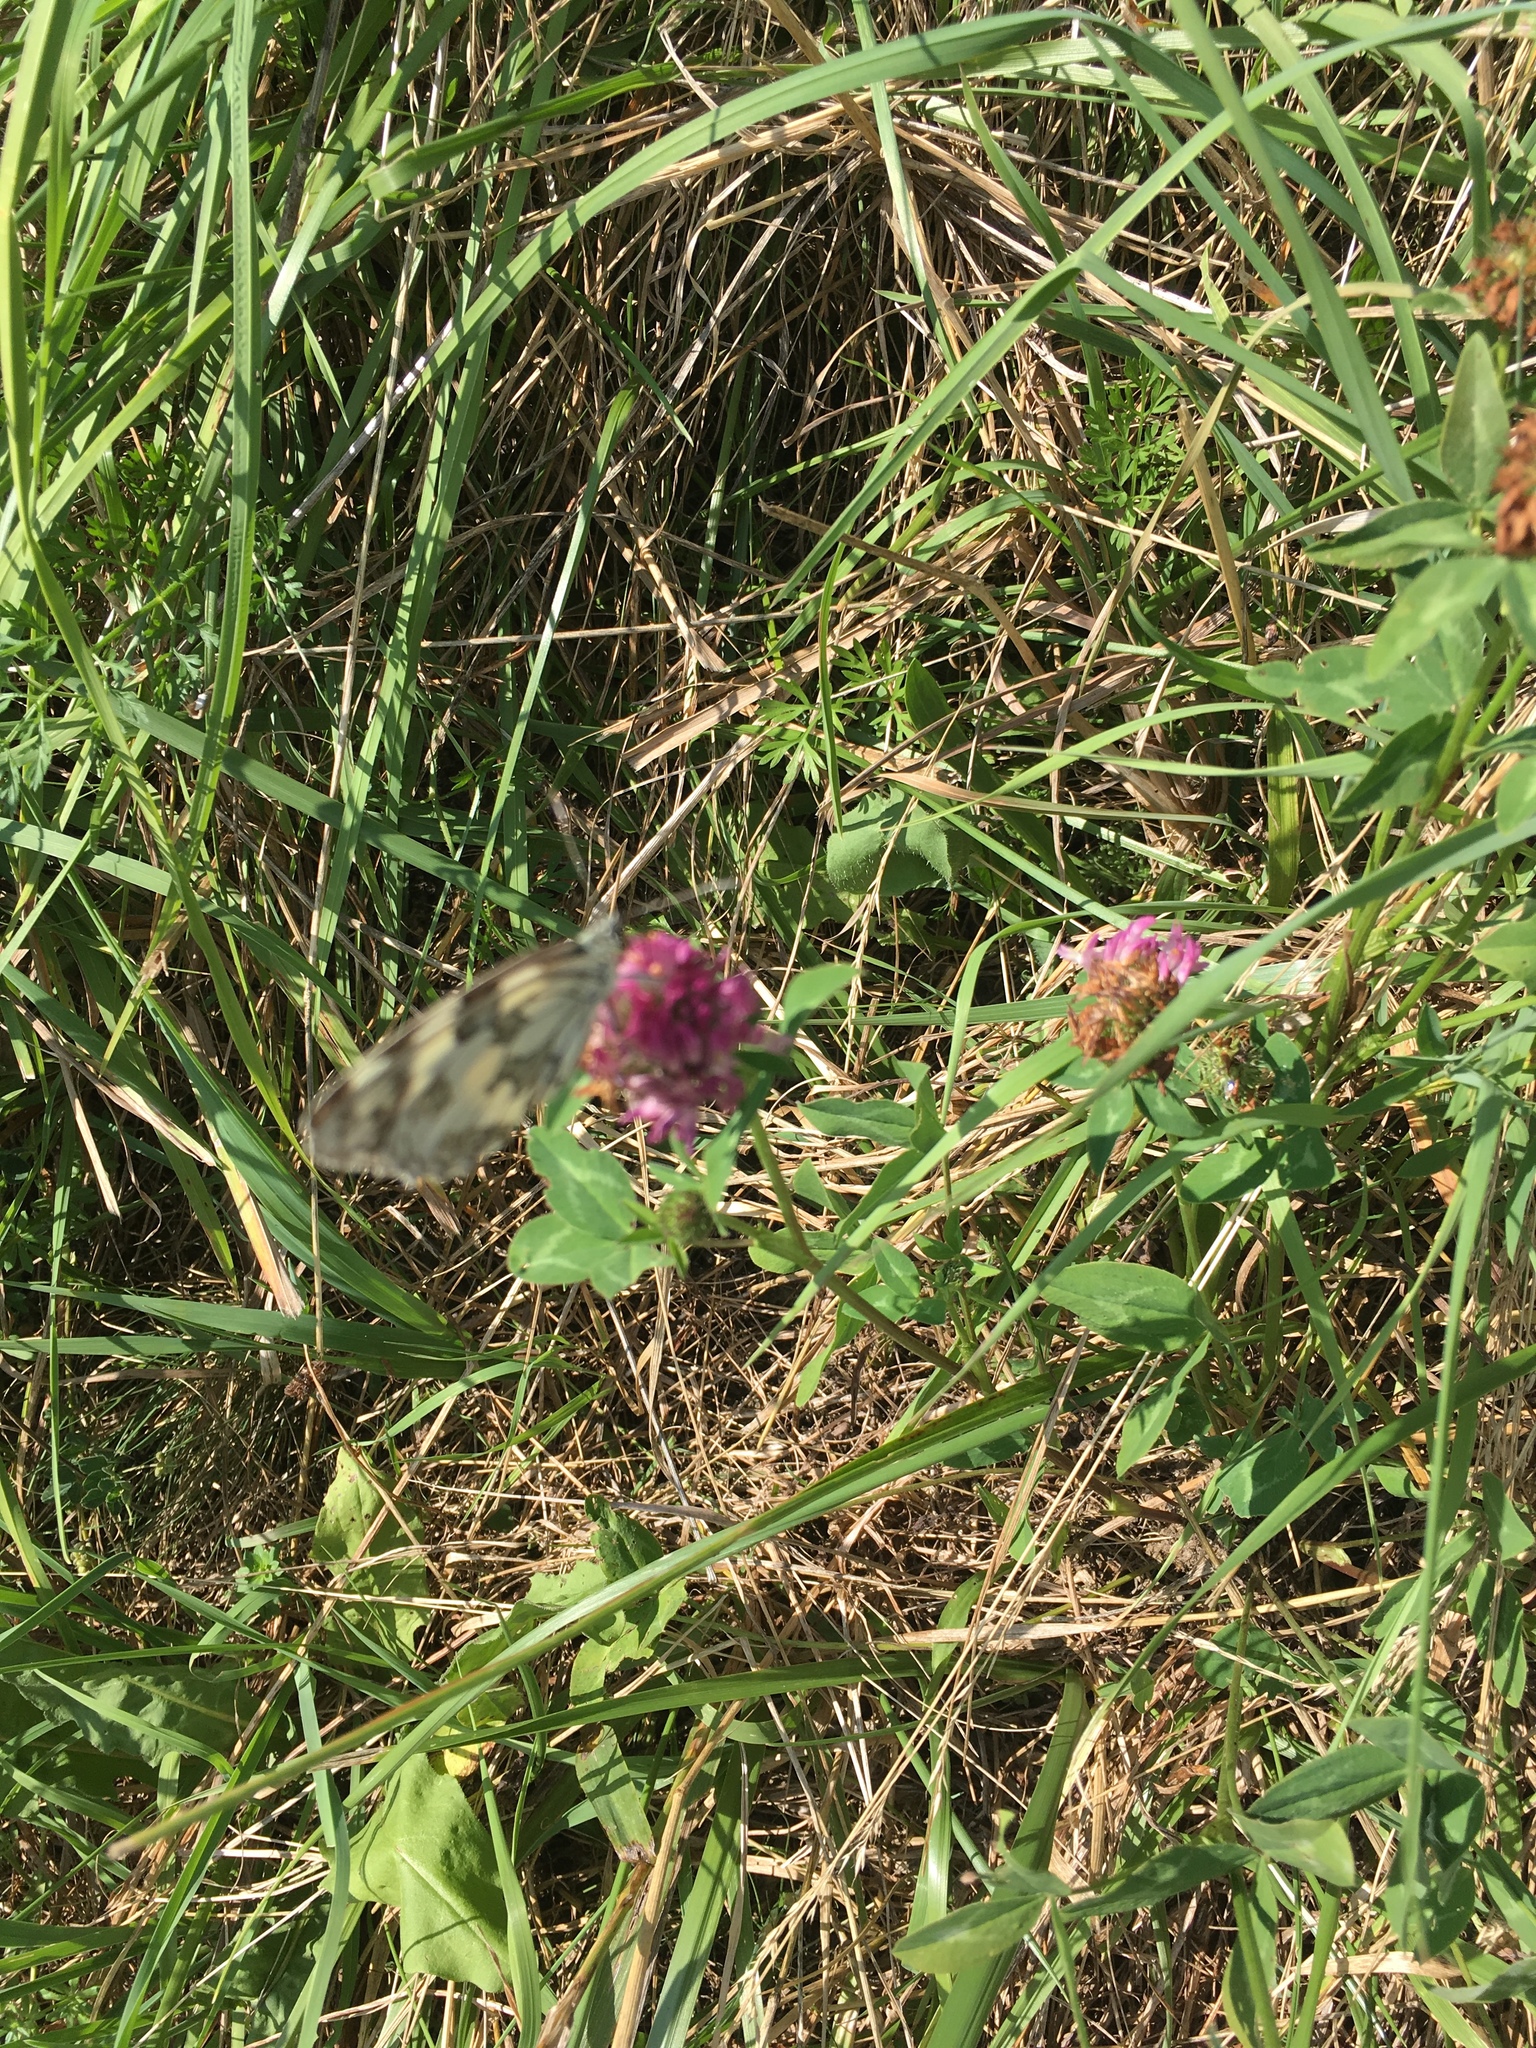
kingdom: Animalia
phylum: Arthropoda
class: Insecta
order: Lepidoptera
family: Nymphalidae
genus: Melanargia
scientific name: Melanargia galathea
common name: Marbled white
